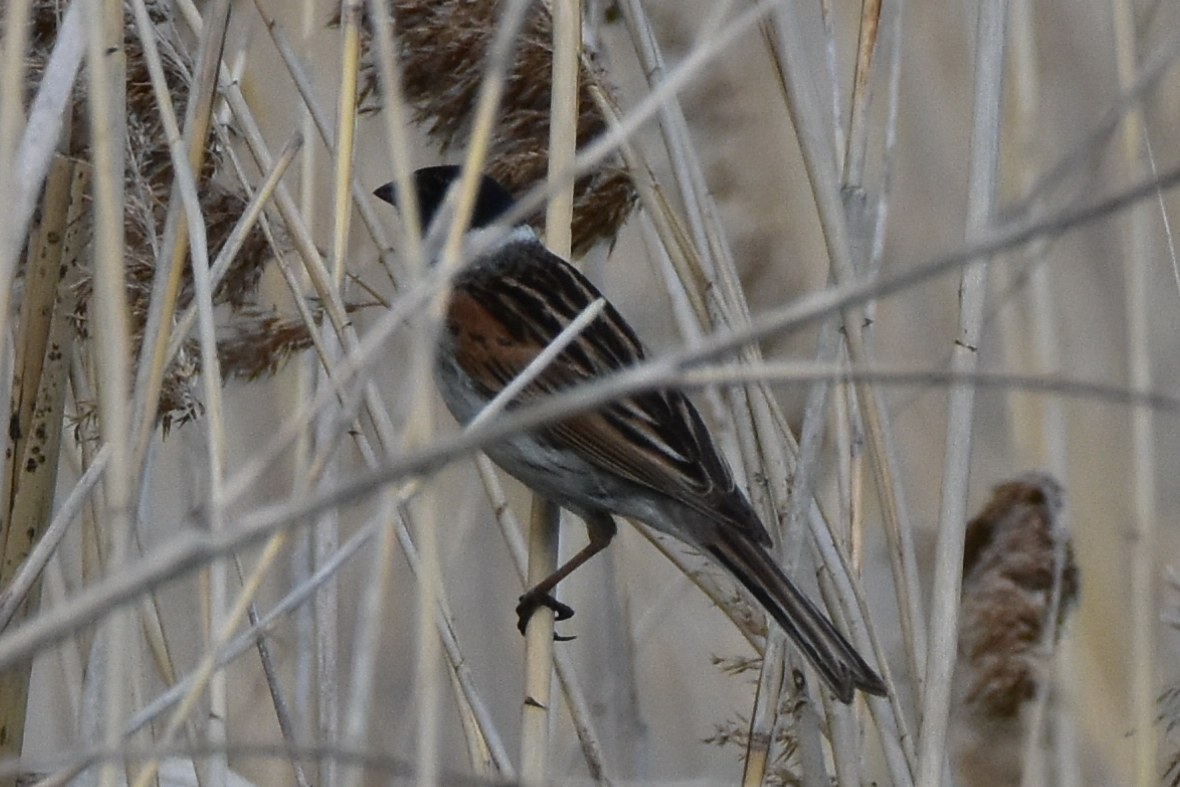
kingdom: Animalia
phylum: Chordata
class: Aves
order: Passeriformes
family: Emberizidae
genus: Emberiza
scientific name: Emberiza schoeniclus
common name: Reed bunting
